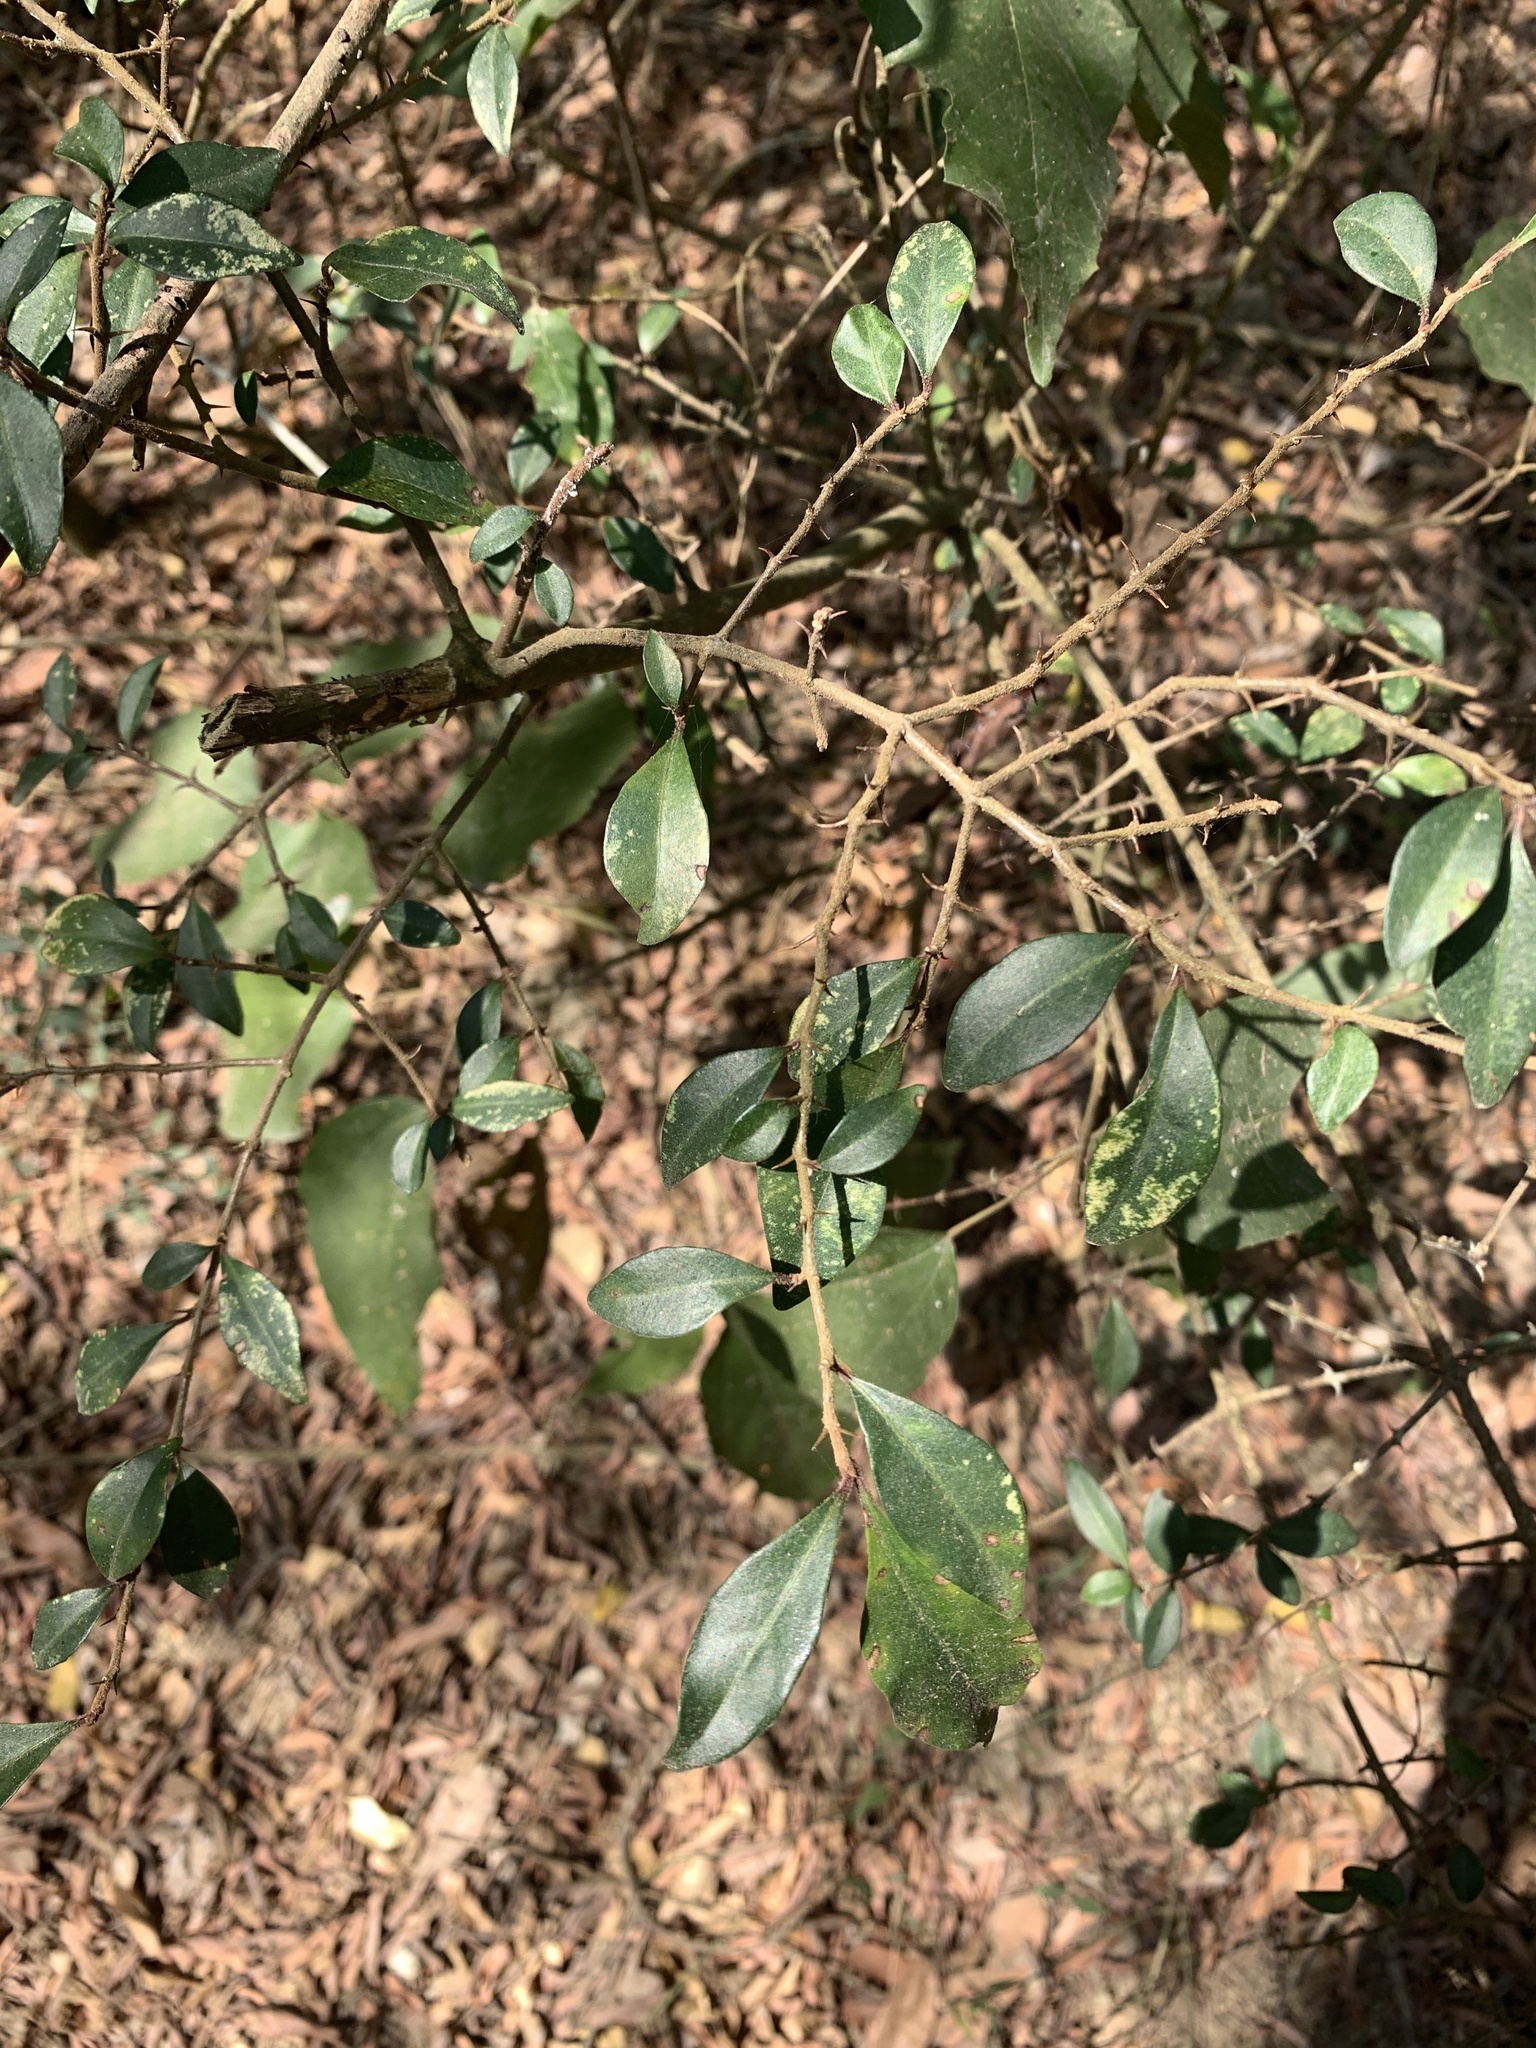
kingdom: Plantae
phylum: Tracheophyta
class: Magnoliopsida
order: Caryophyllales
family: Nyctaginaceae
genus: Pisonia
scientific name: Pisonia aculeata
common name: Cockspur vine
